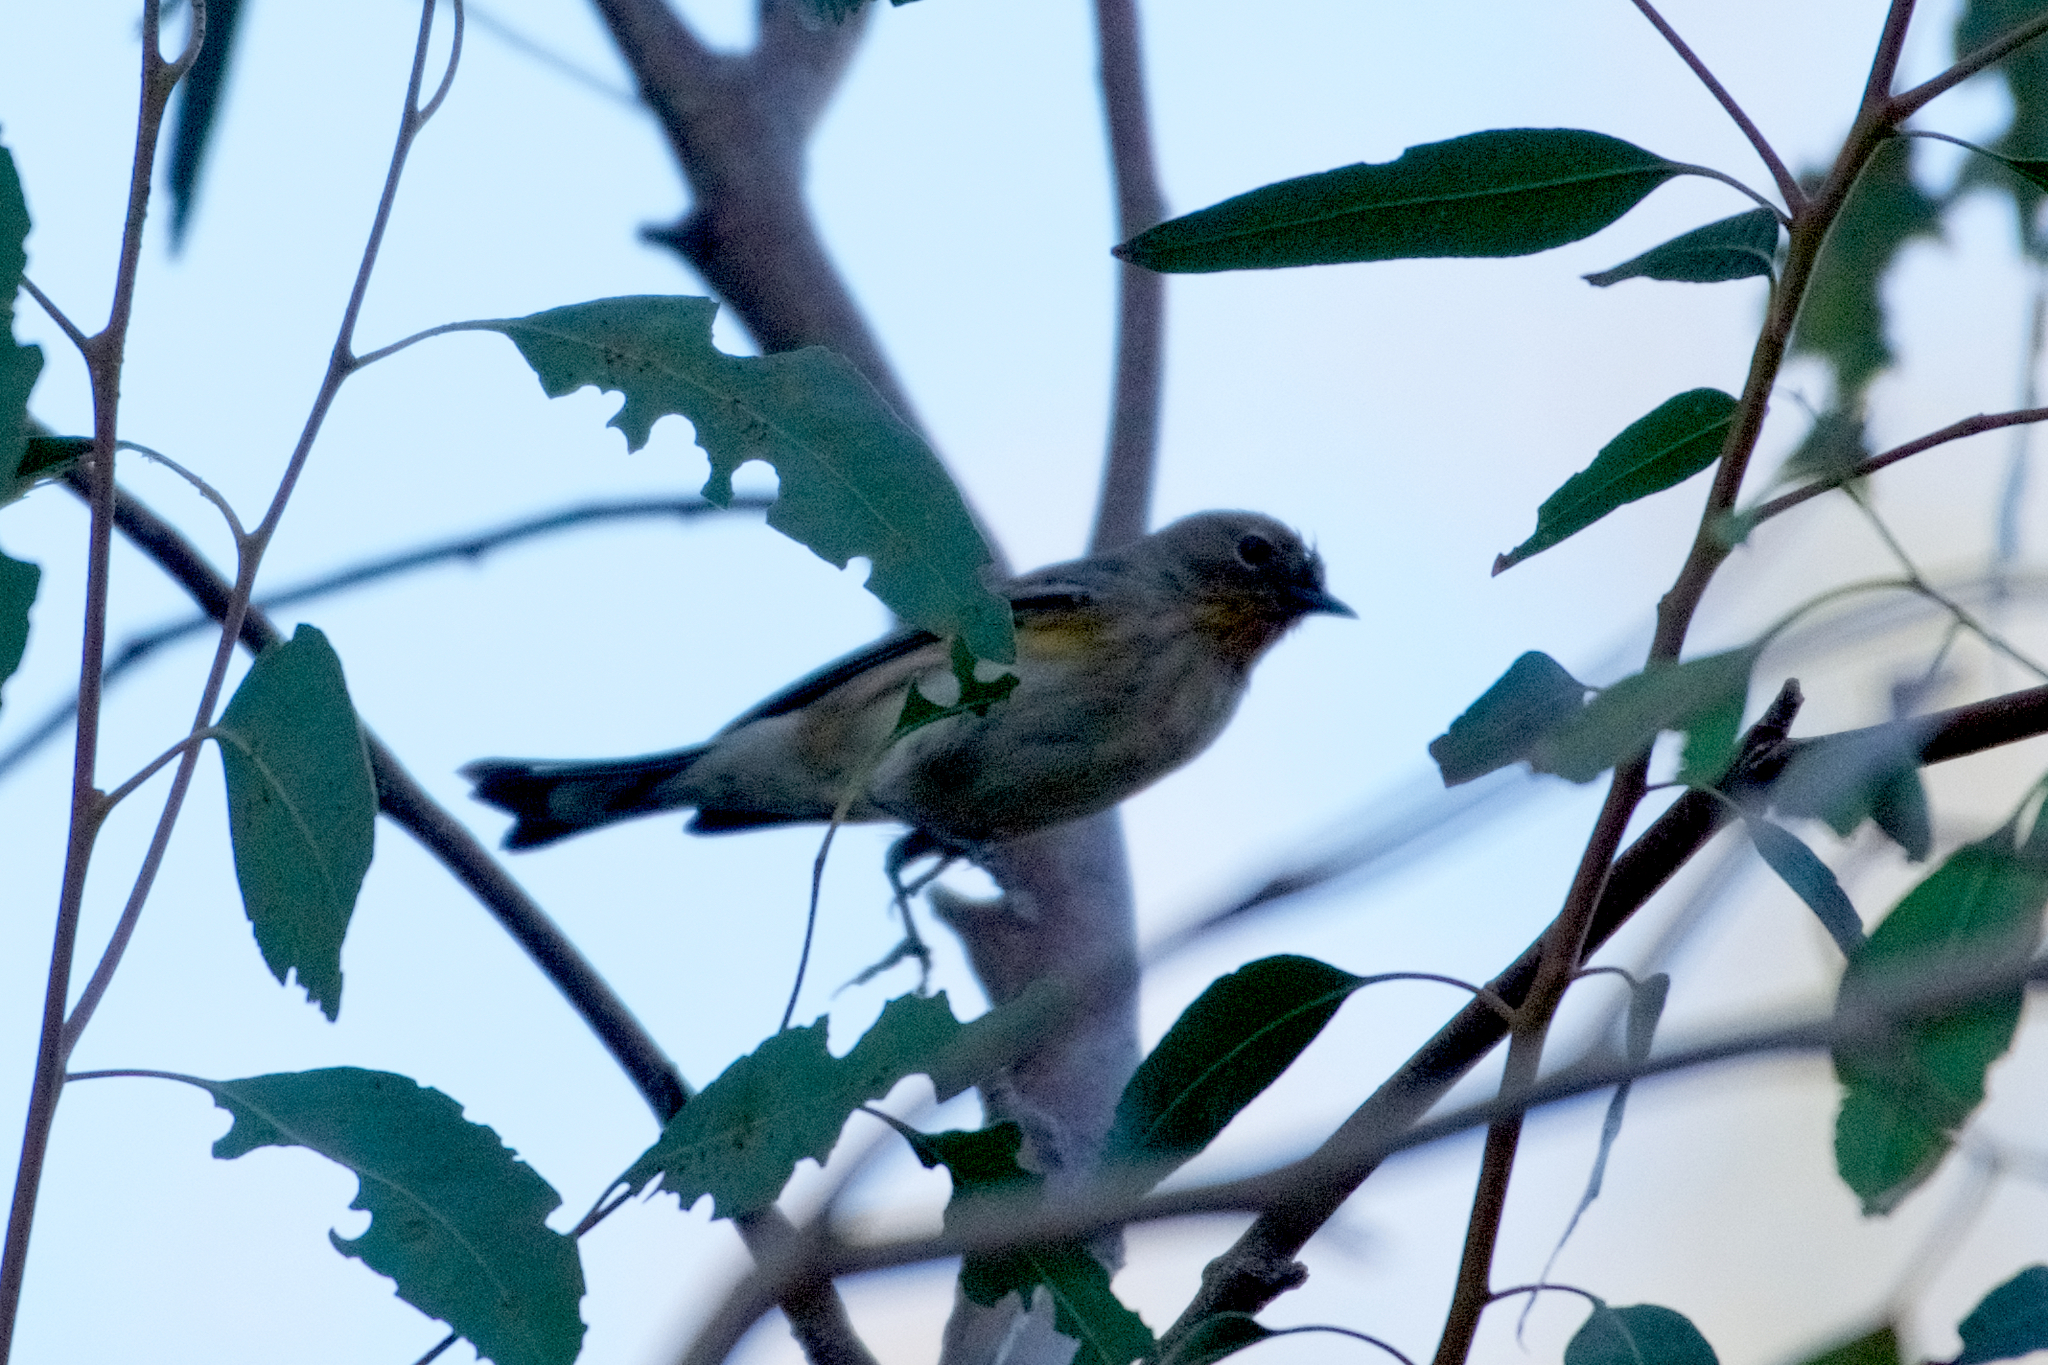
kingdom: Animalia
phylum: Chordata
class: Aves
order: Passeriformes
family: Parulidae
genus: Setophaga
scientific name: Setophaga coronata
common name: Myrtle warbler
